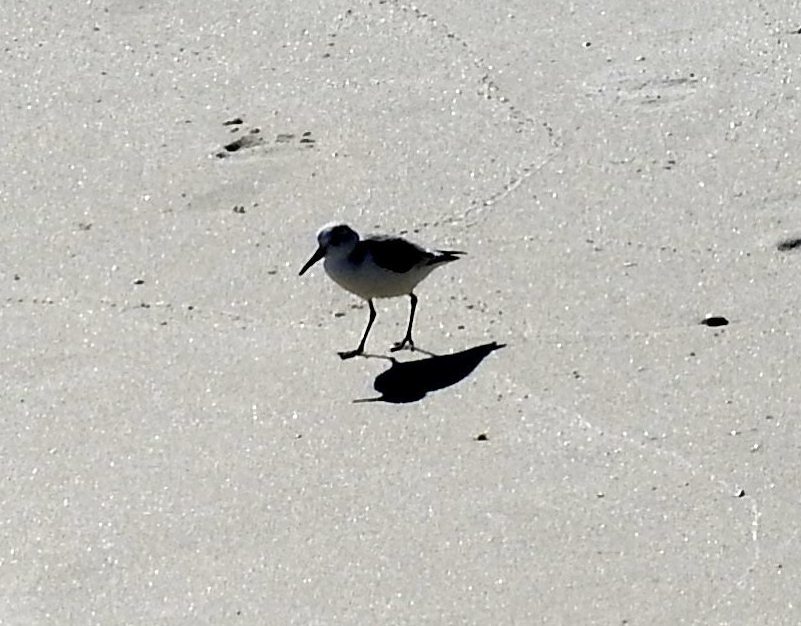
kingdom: Animalia
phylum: Chordata
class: Aves
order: Charadriiformes
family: Scolopacidae
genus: Calidris
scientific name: Calidris alba
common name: Sanderling
